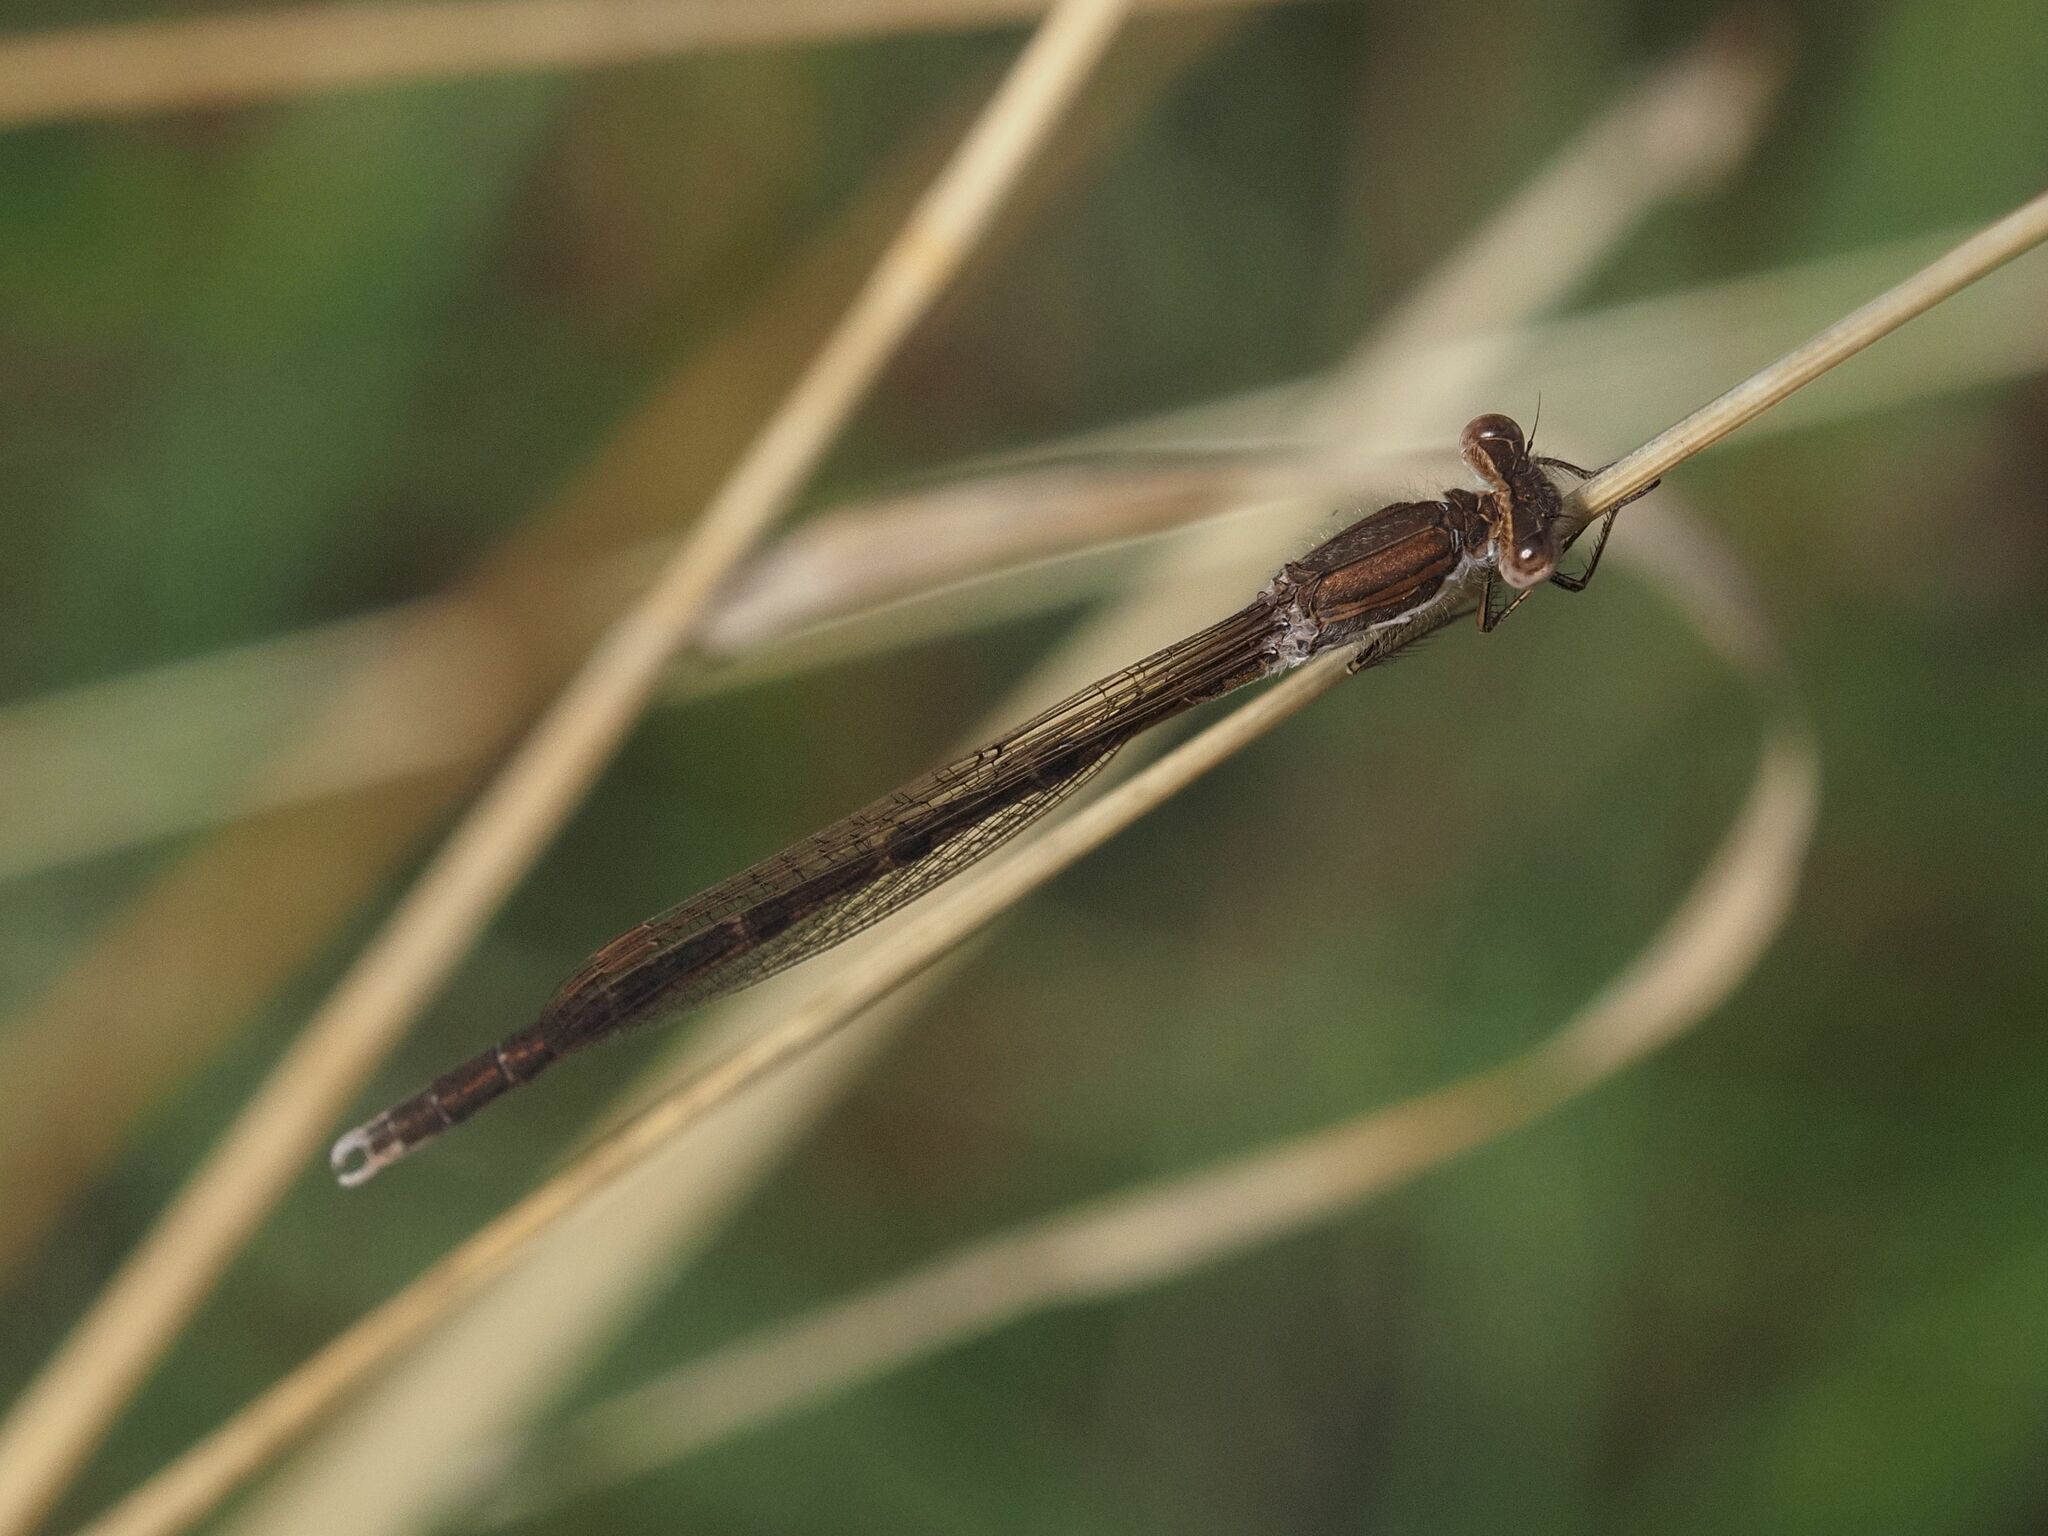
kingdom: Animalia
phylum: Arthropoda
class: Insecta
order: Odonata
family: Lestidae
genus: Sympecma
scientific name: Sympecma fusca
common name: Common winter damsel
